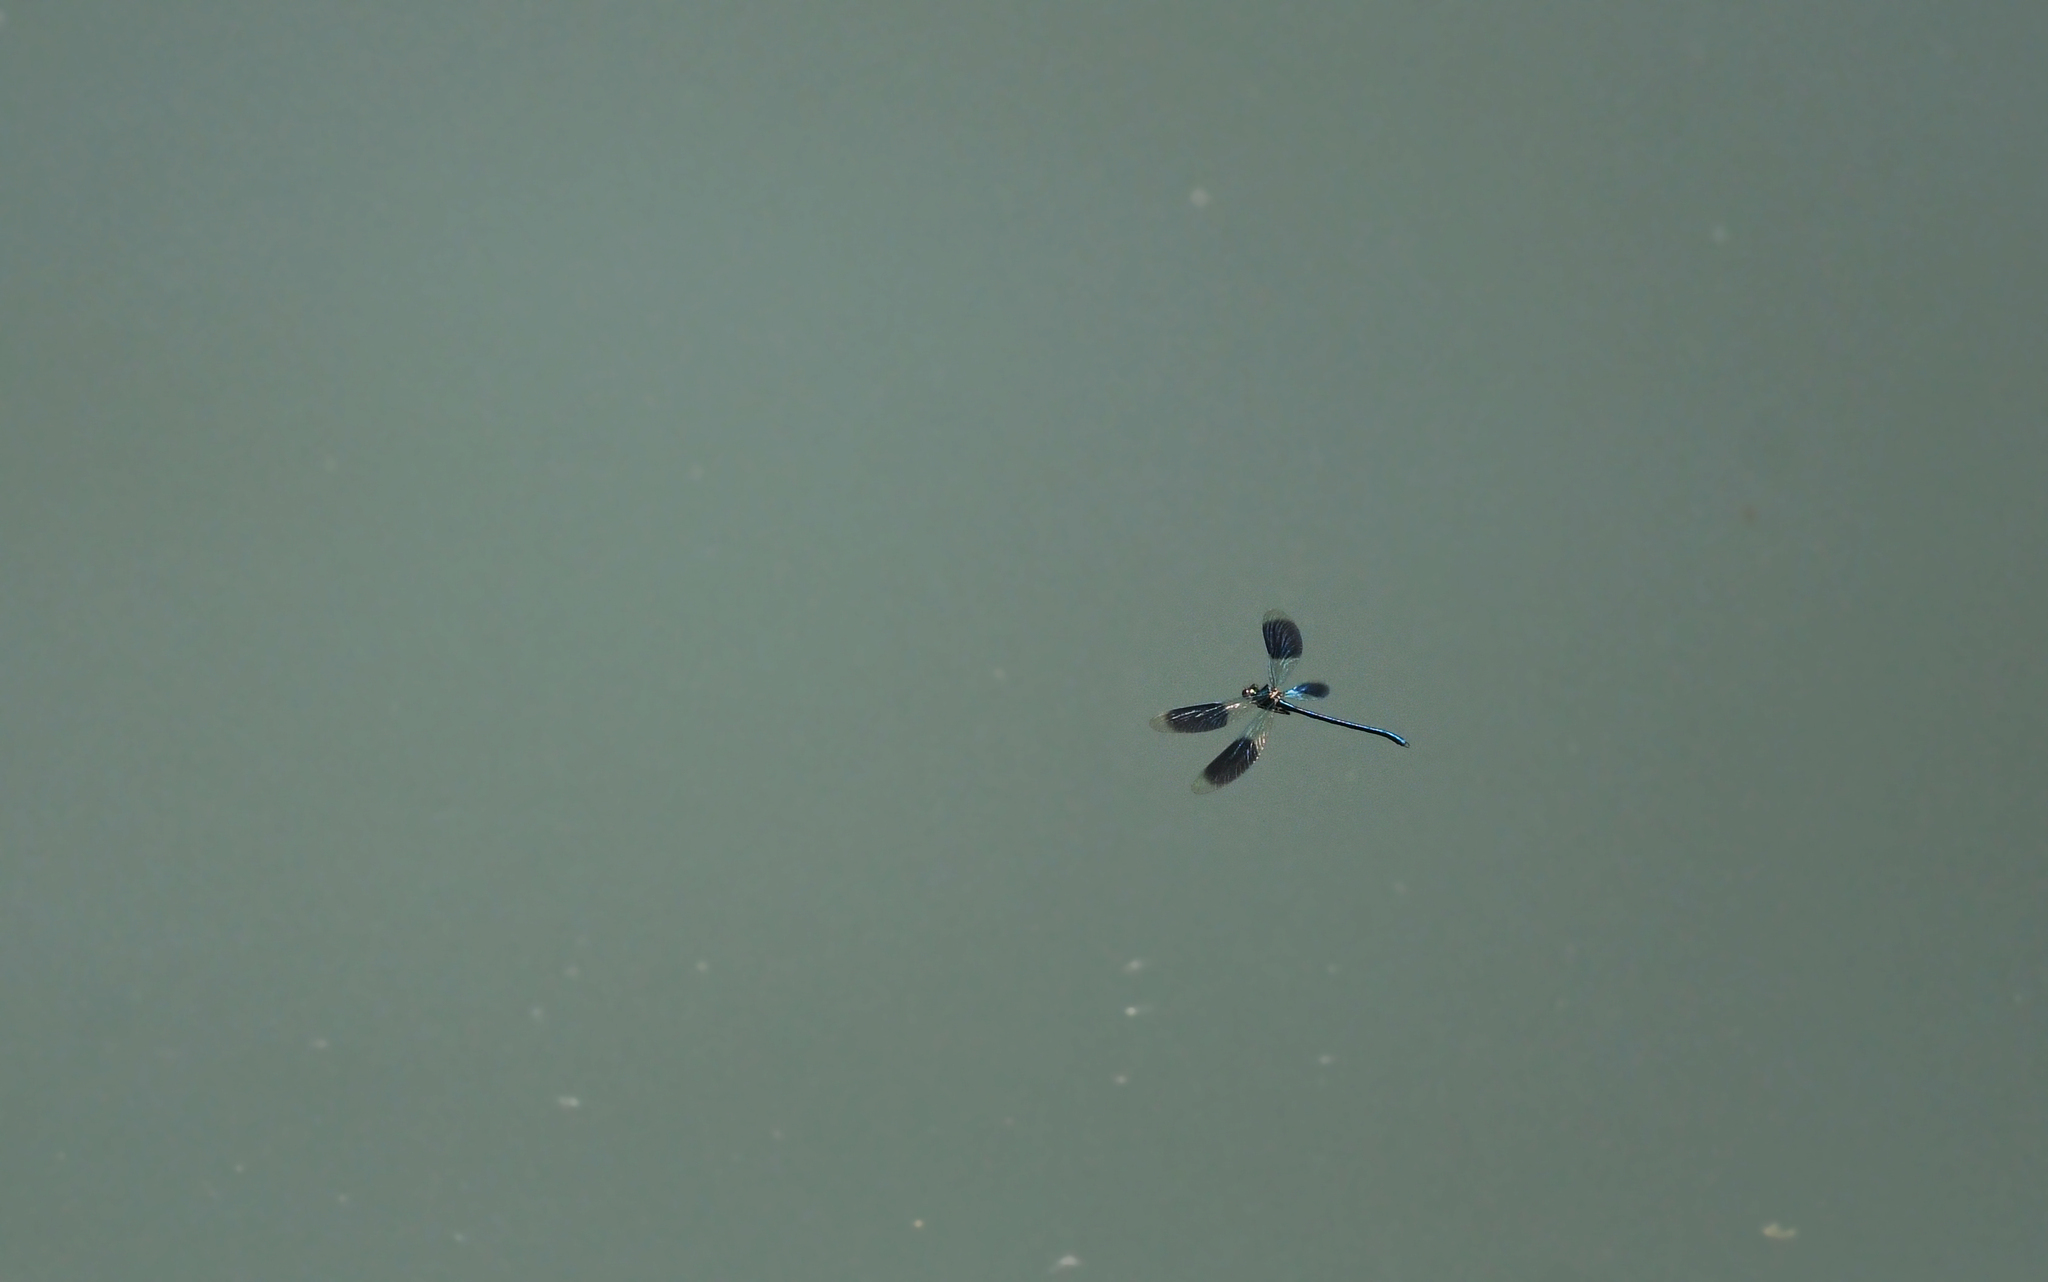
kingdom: Animalia
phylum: Arthropoda
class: Insecta
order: Odonata
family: Calopterygidae
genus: Calopteryx
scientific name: Calopteryx splendens
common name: Banded demoiselle
